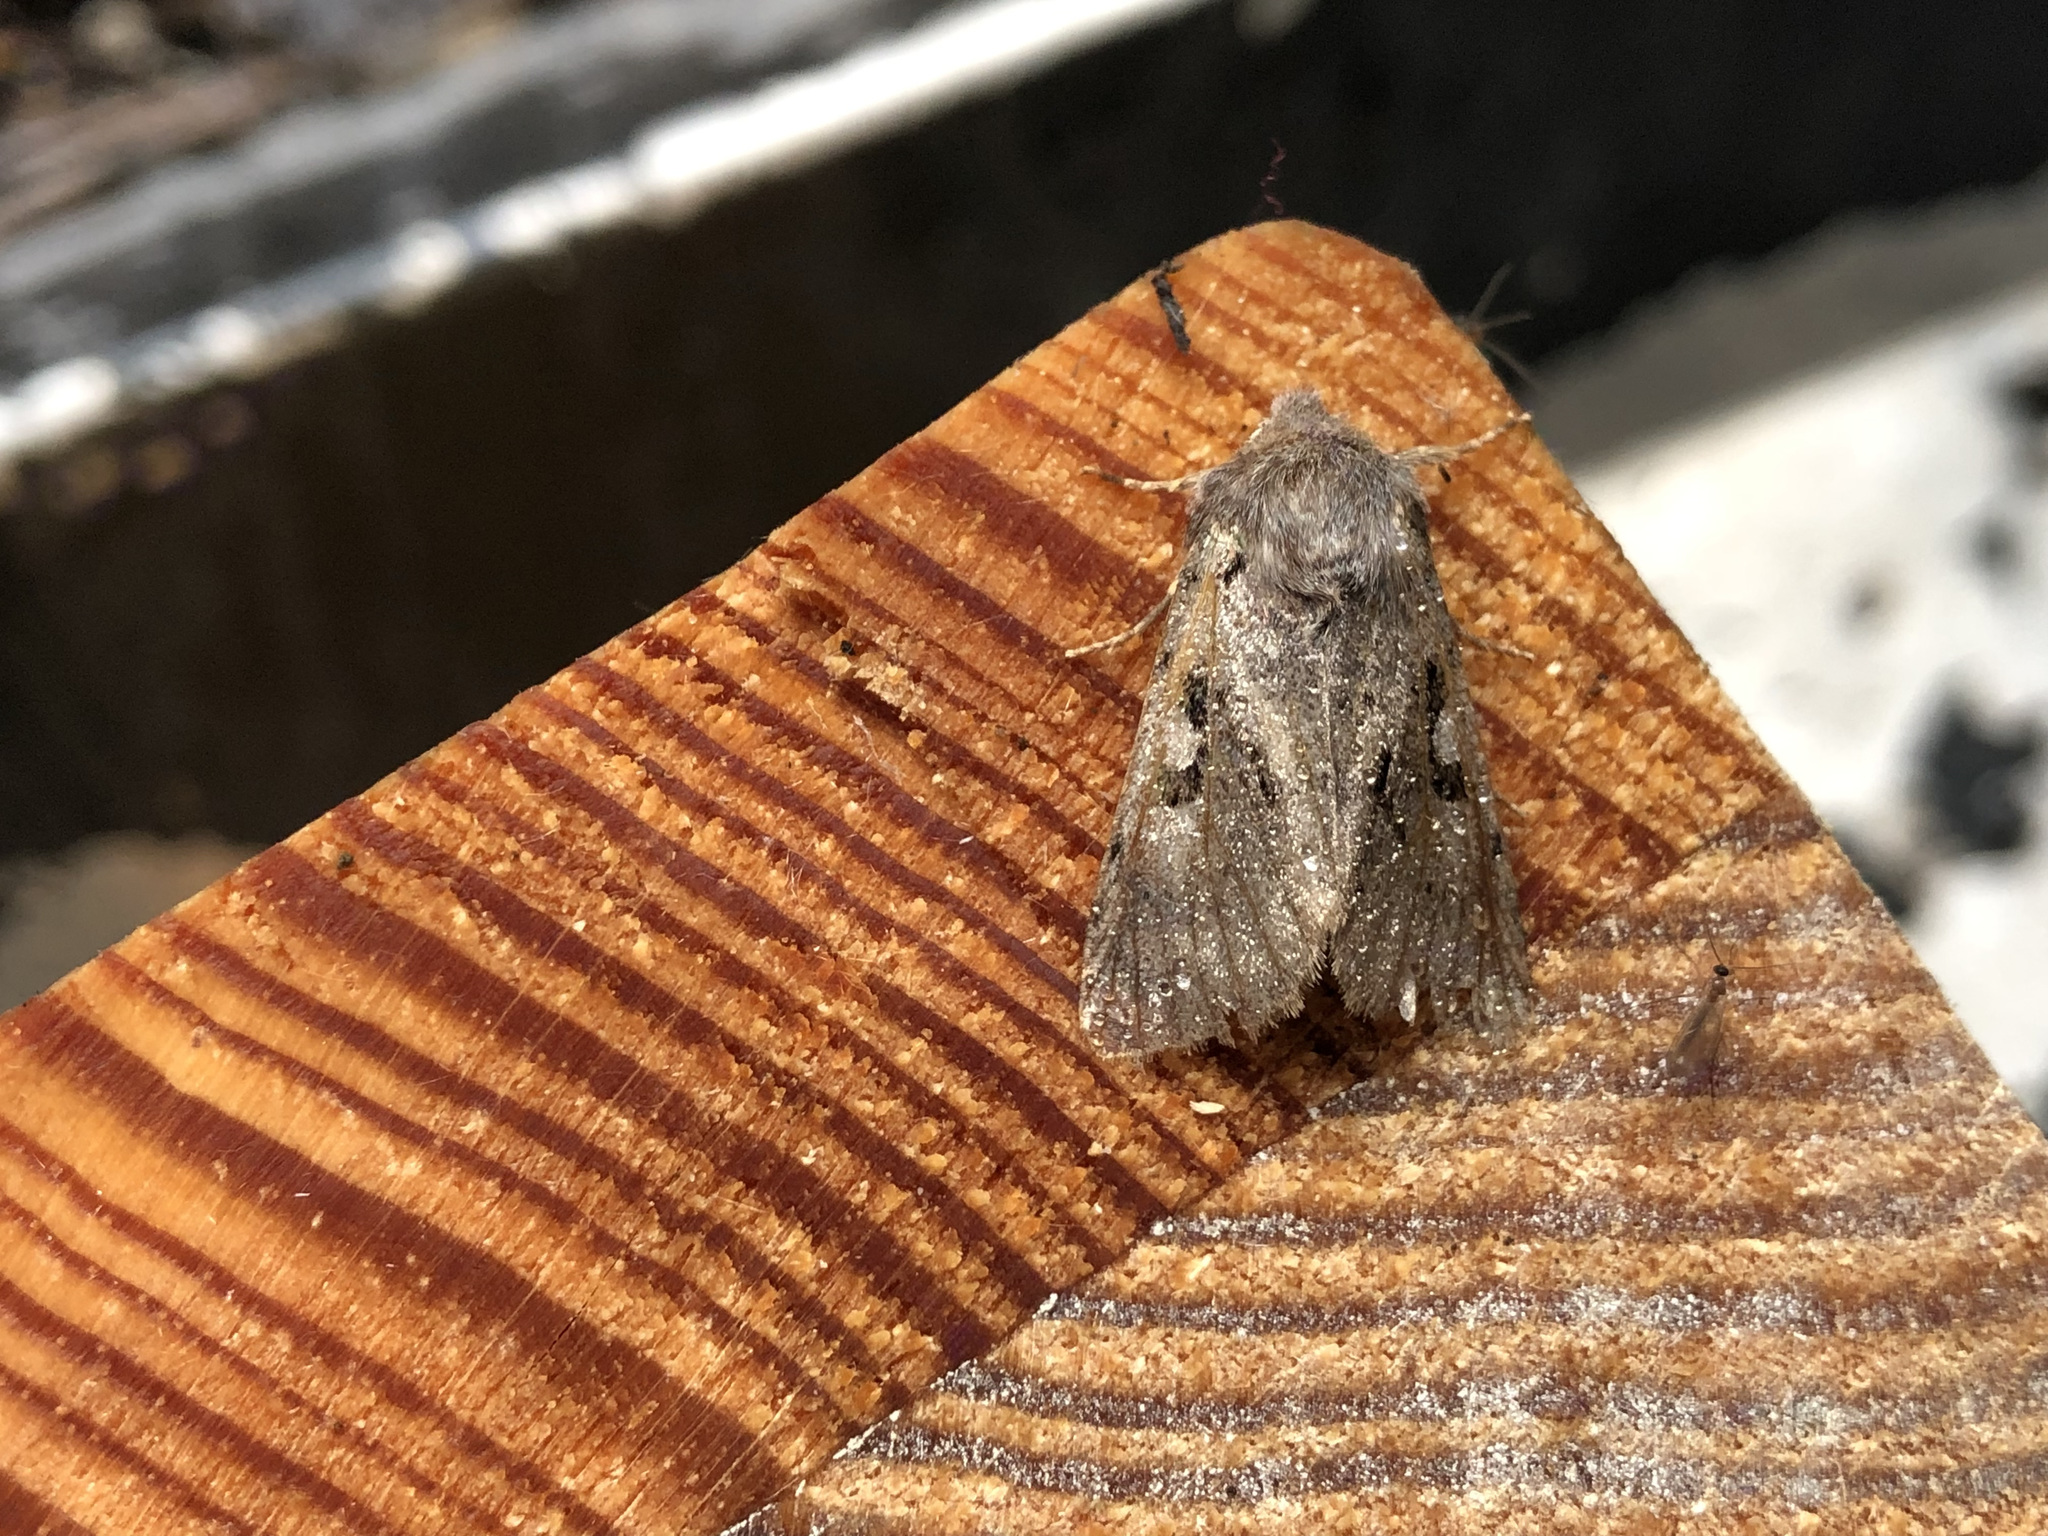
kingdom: Animalia
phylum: Arthropoda
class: Insecta
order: Lepidoptera
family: Noctuidae
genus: Orthosia
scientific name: Orthosia gothica
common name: Hebrew character
